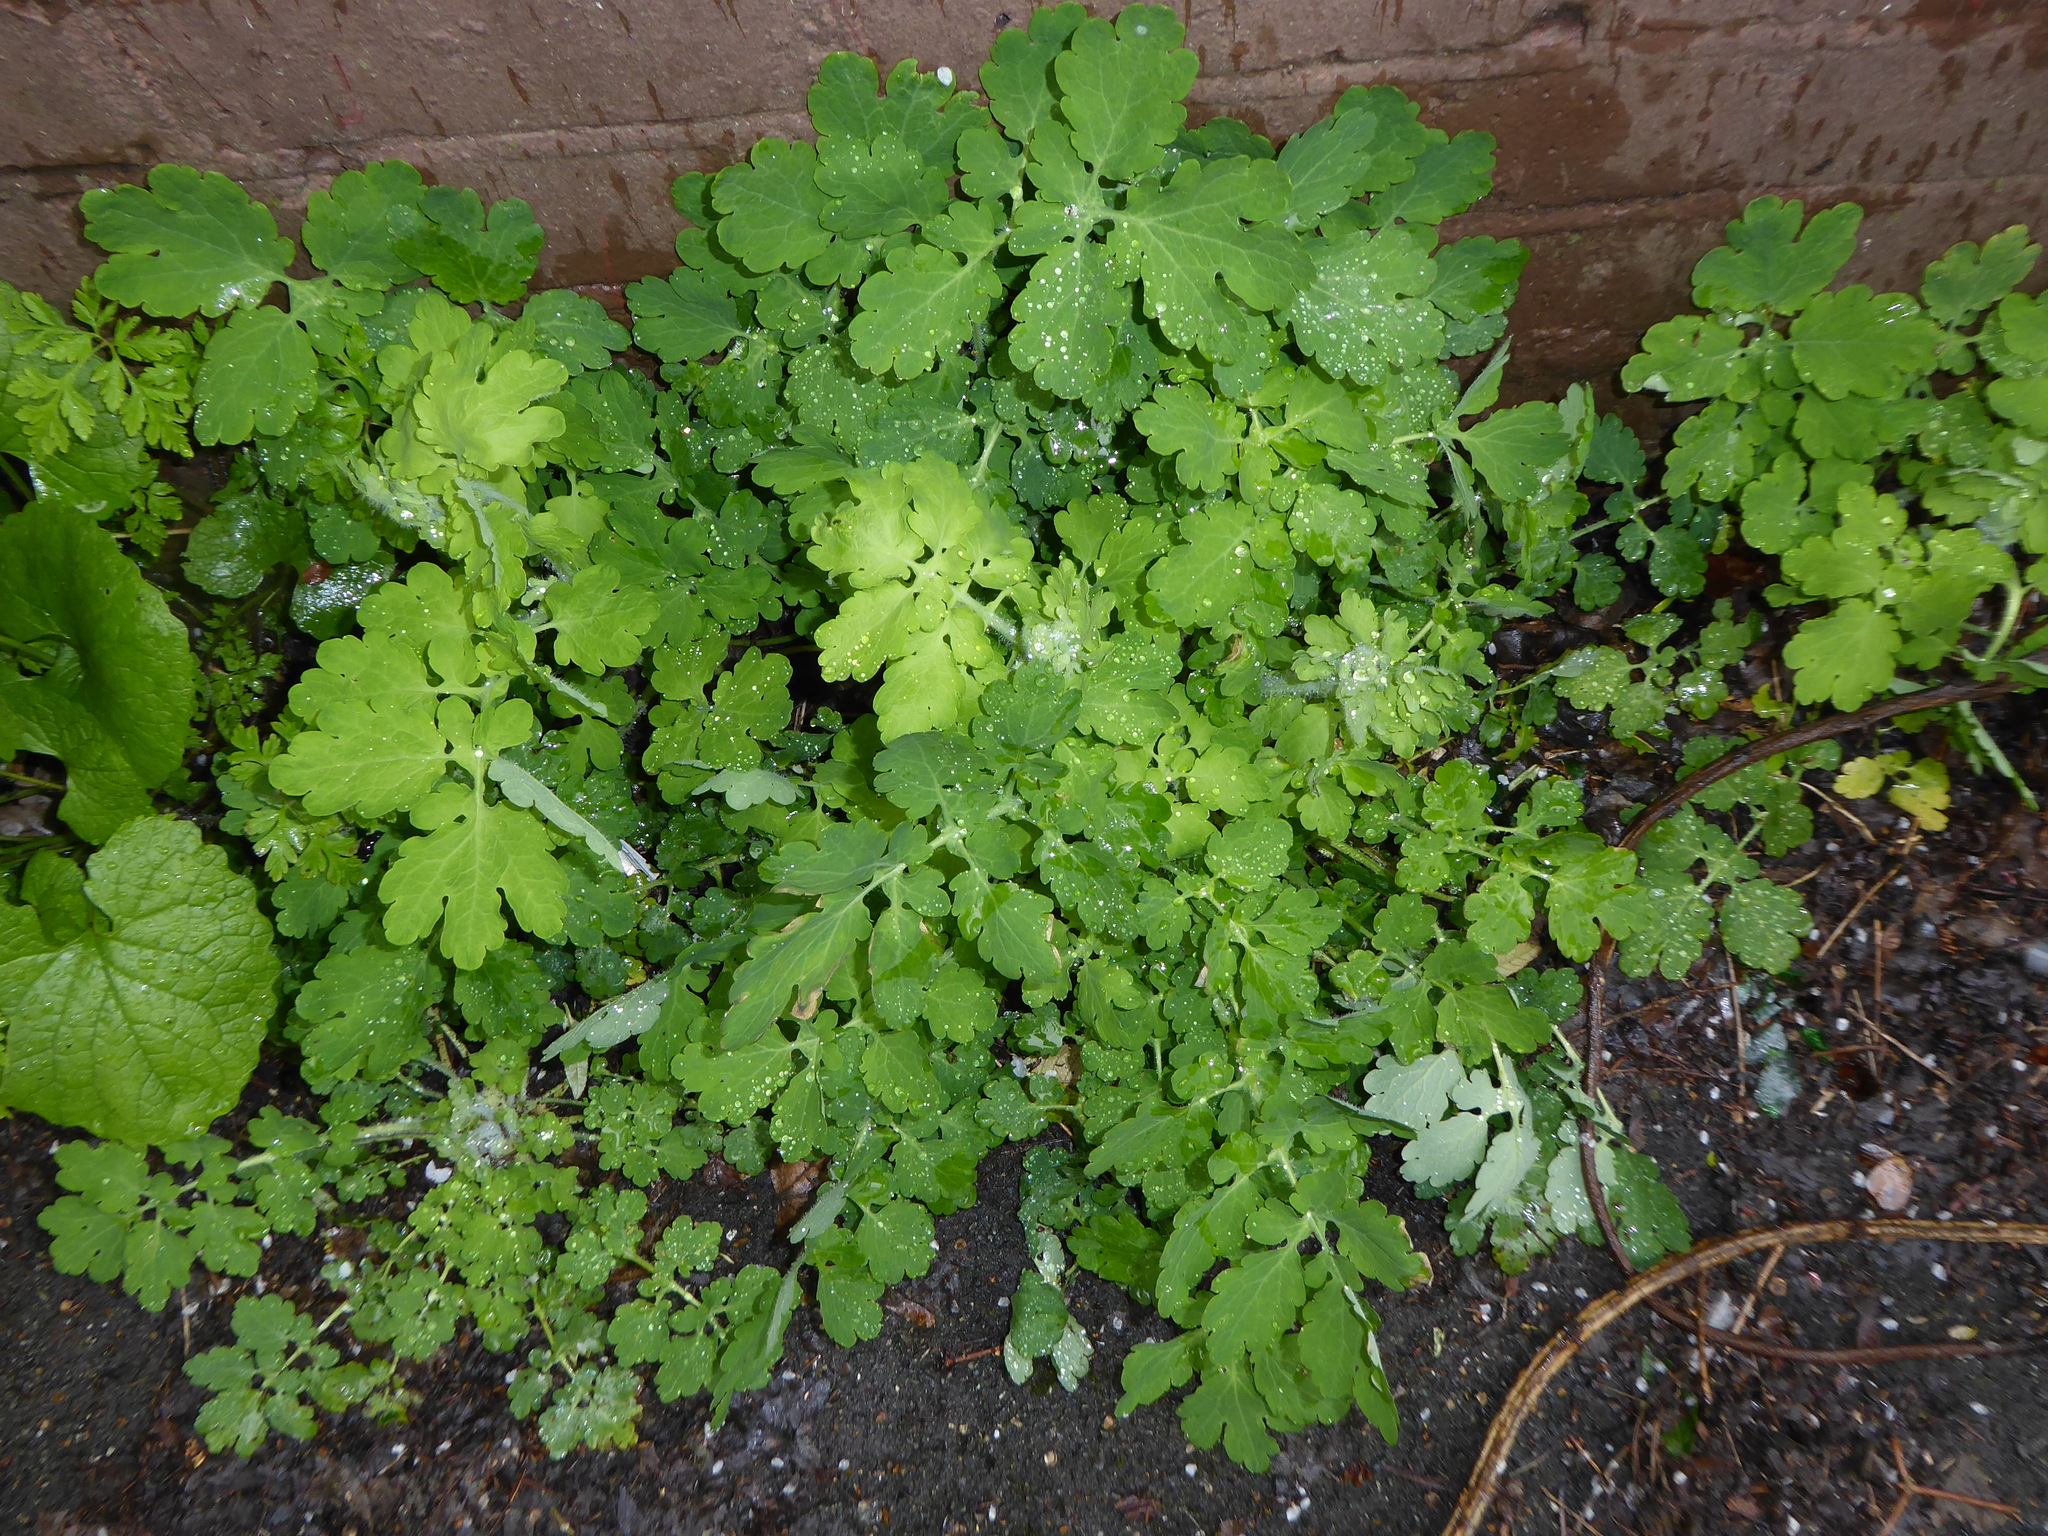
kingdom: Plantae
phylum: Tracheophyta
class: Magnoliopsida
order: Ranunculales
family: Papaveraceae
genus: Chelidonium
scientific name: Chelidonium majus
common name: Greater celandine
